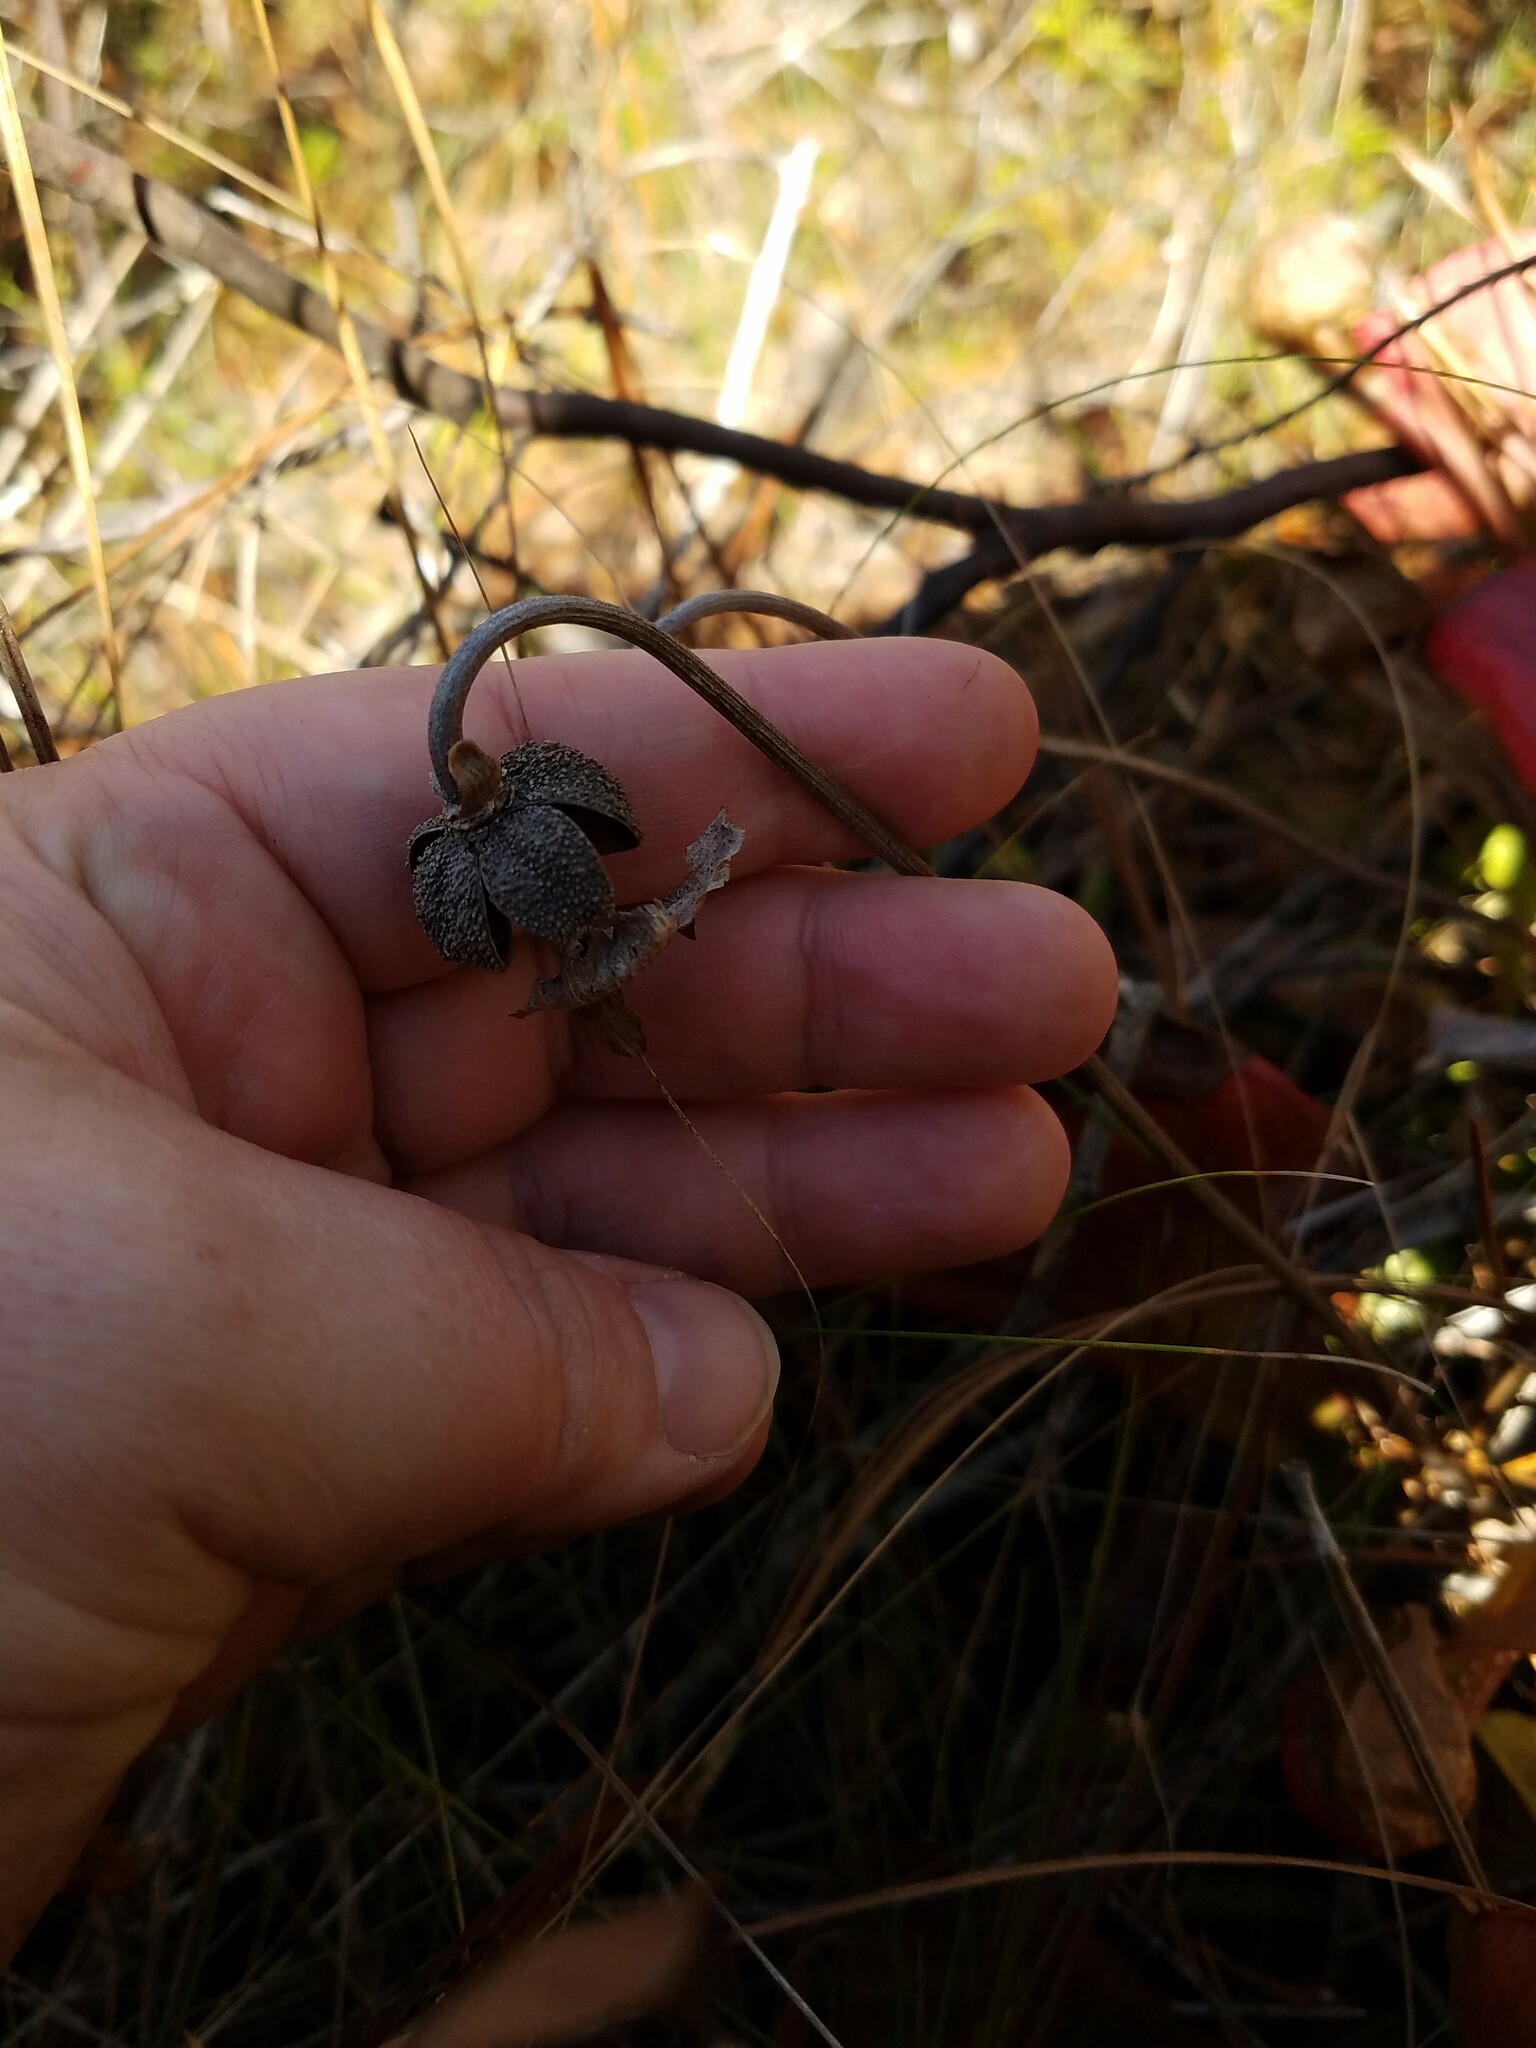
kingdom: Plantae
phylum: Tracheophyta
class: Magnoliopsida
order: Ericales
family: Sarraceniaceae
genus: Sarracenia
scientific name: Sarracenia psittacina
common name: Parrot pitcherplant
